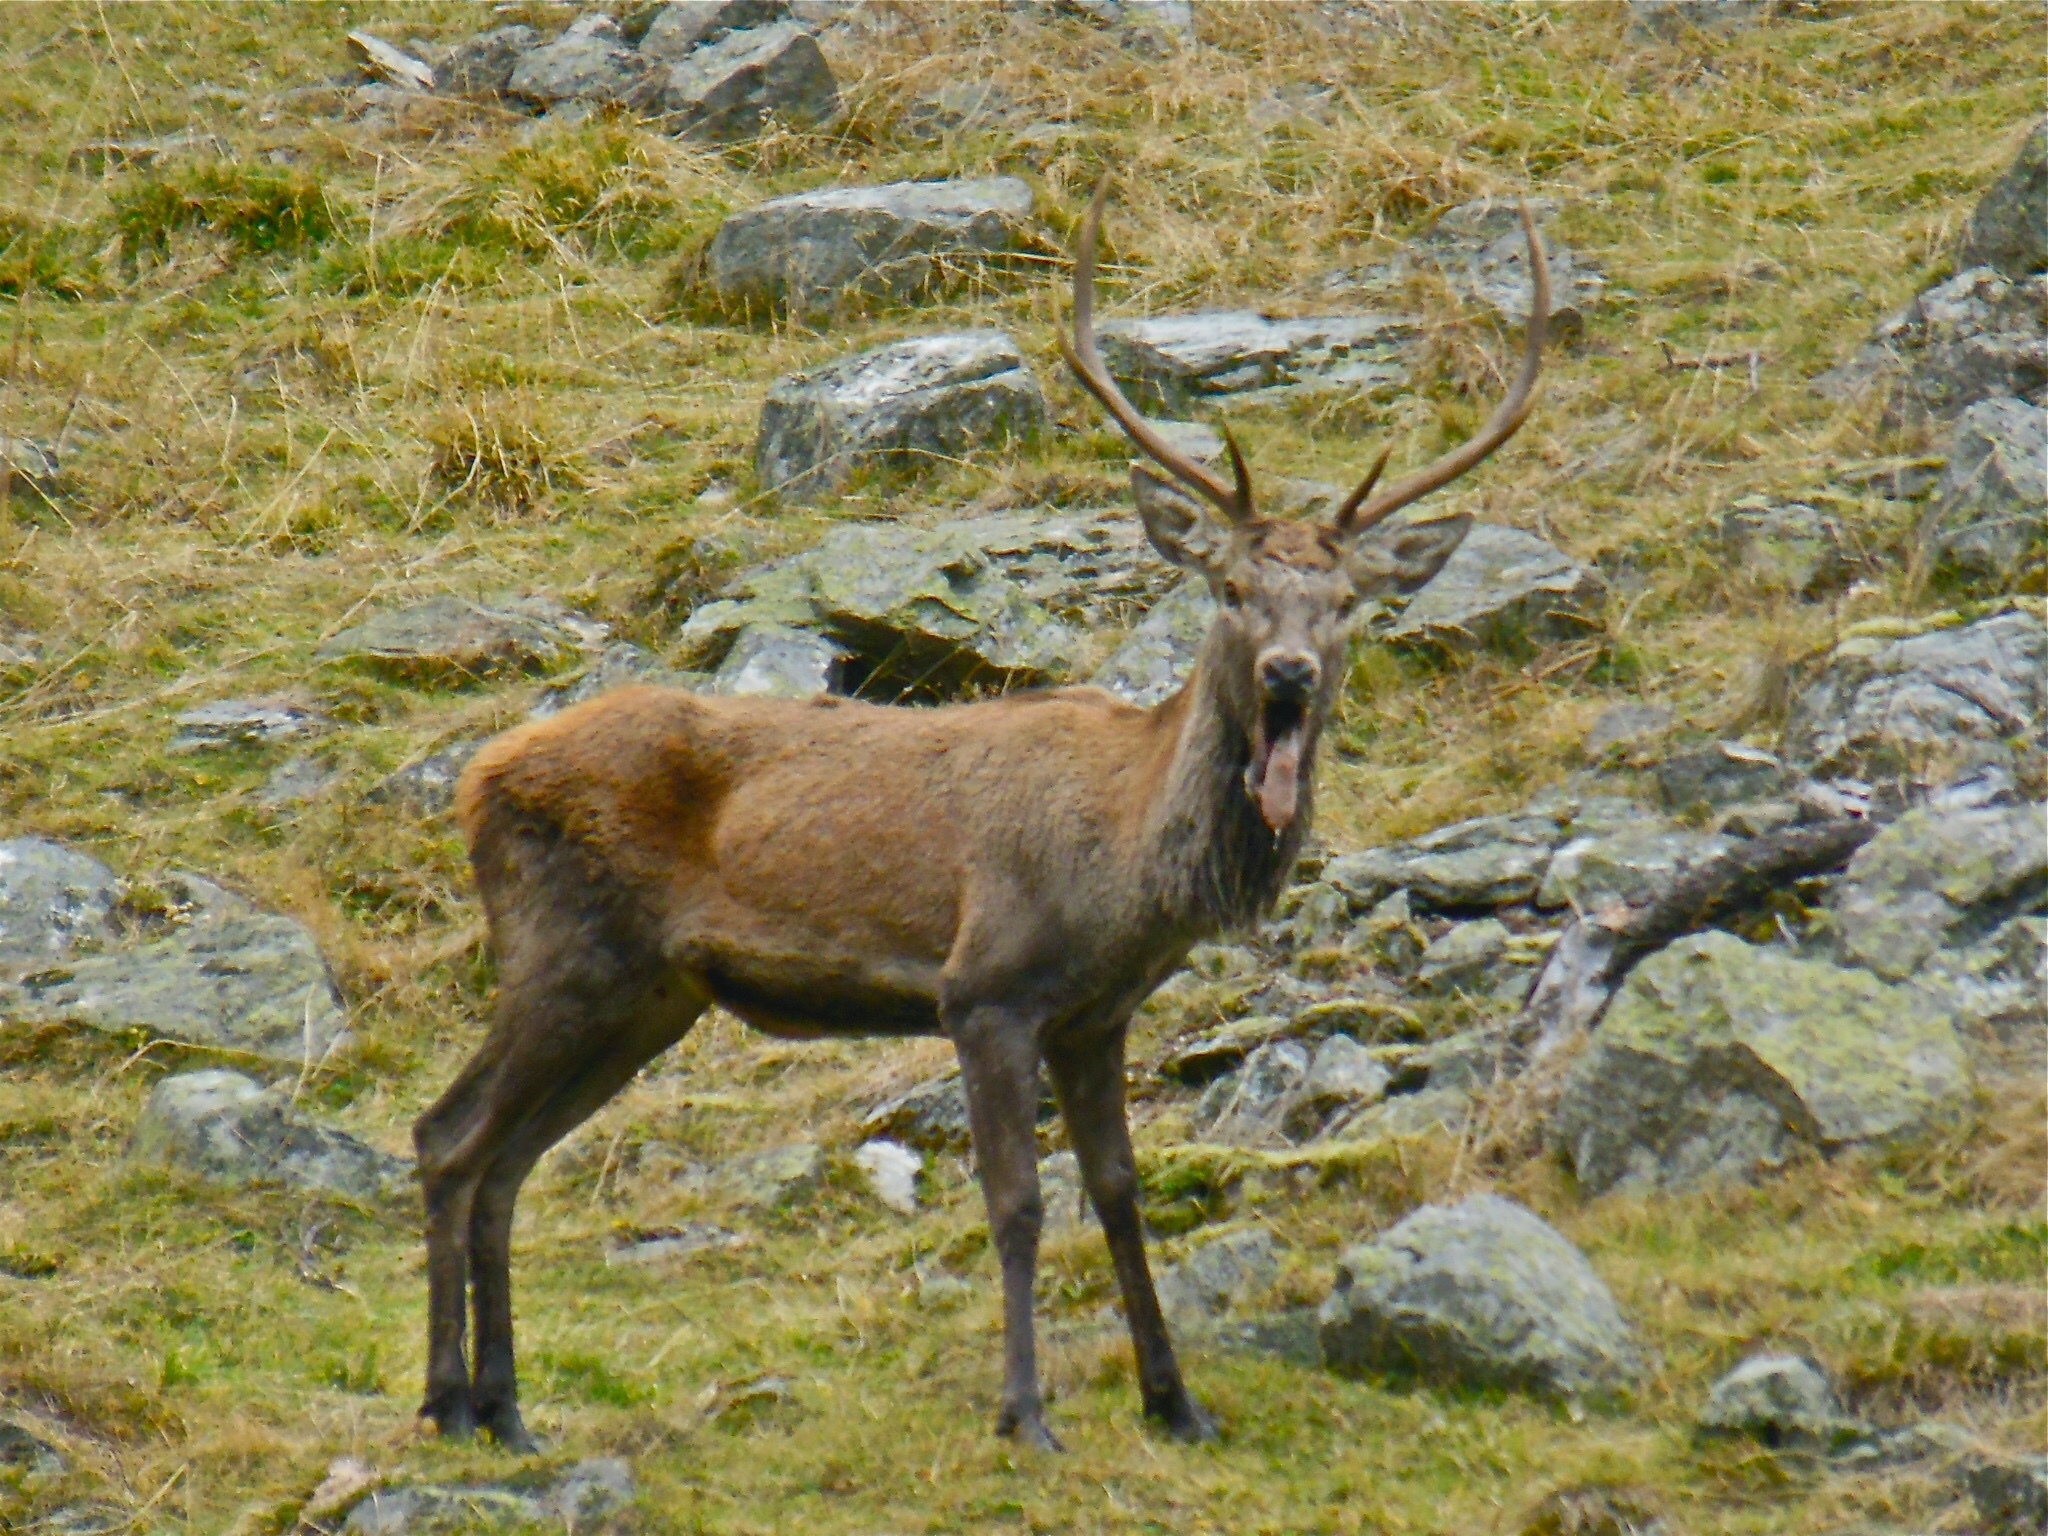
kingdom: Animalia
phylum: Chordata
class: Mammalia
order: Artiodactyla
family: Cervidae
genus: Cervus
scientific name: Cervus elaphus
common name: Red deer
